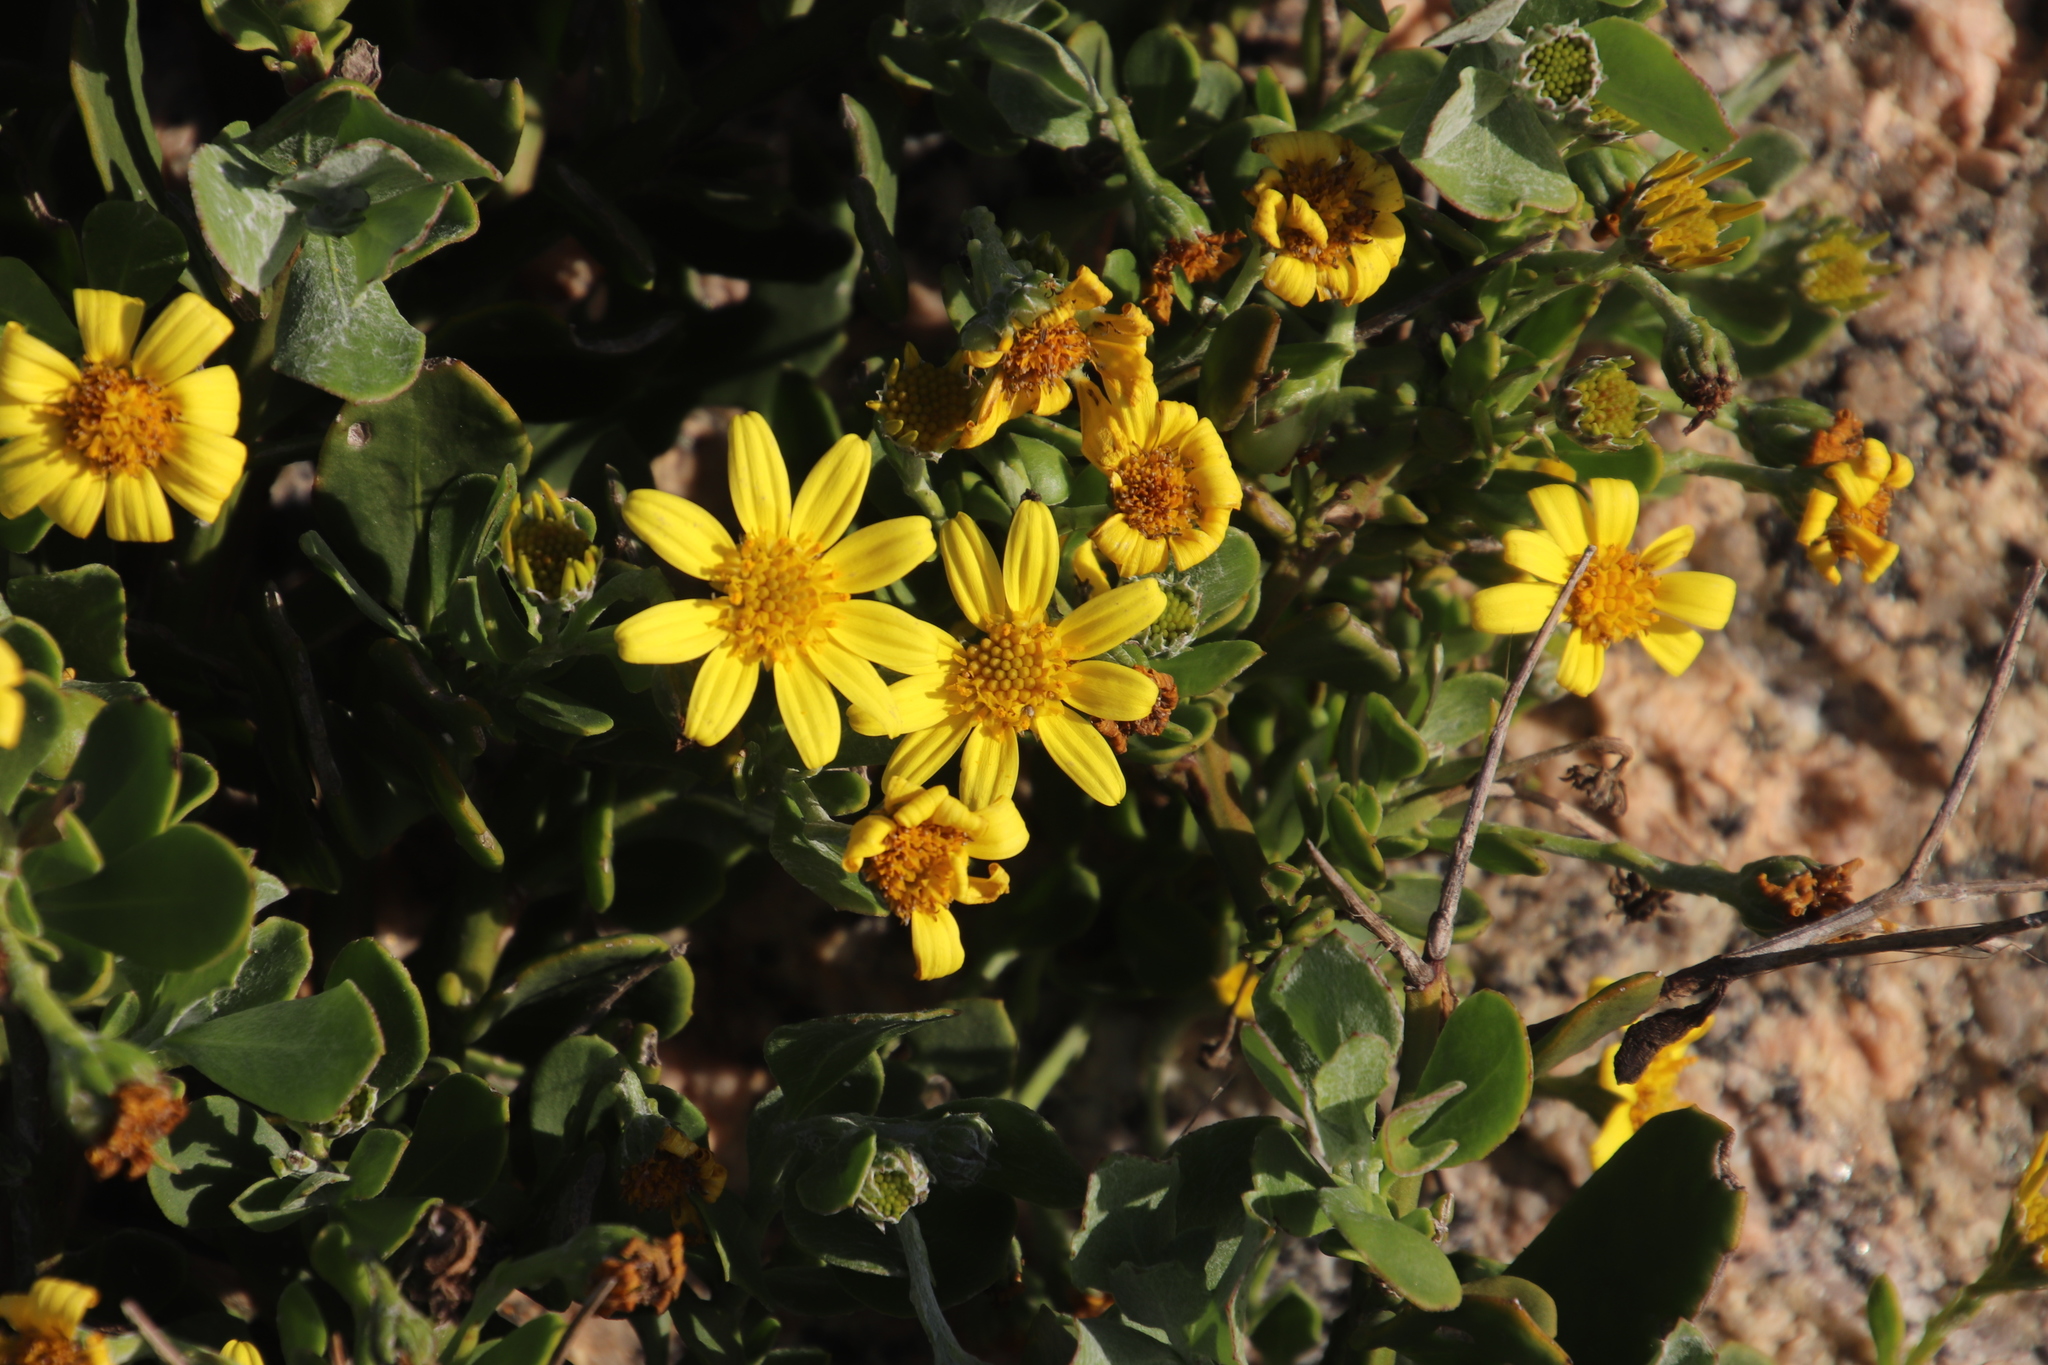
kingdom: Plantae
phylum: Tracheophyta
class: Magnoliopsida
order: Asterales
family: Asteraceae
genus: Osteospermum
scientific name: Osteospermum moniliferum
